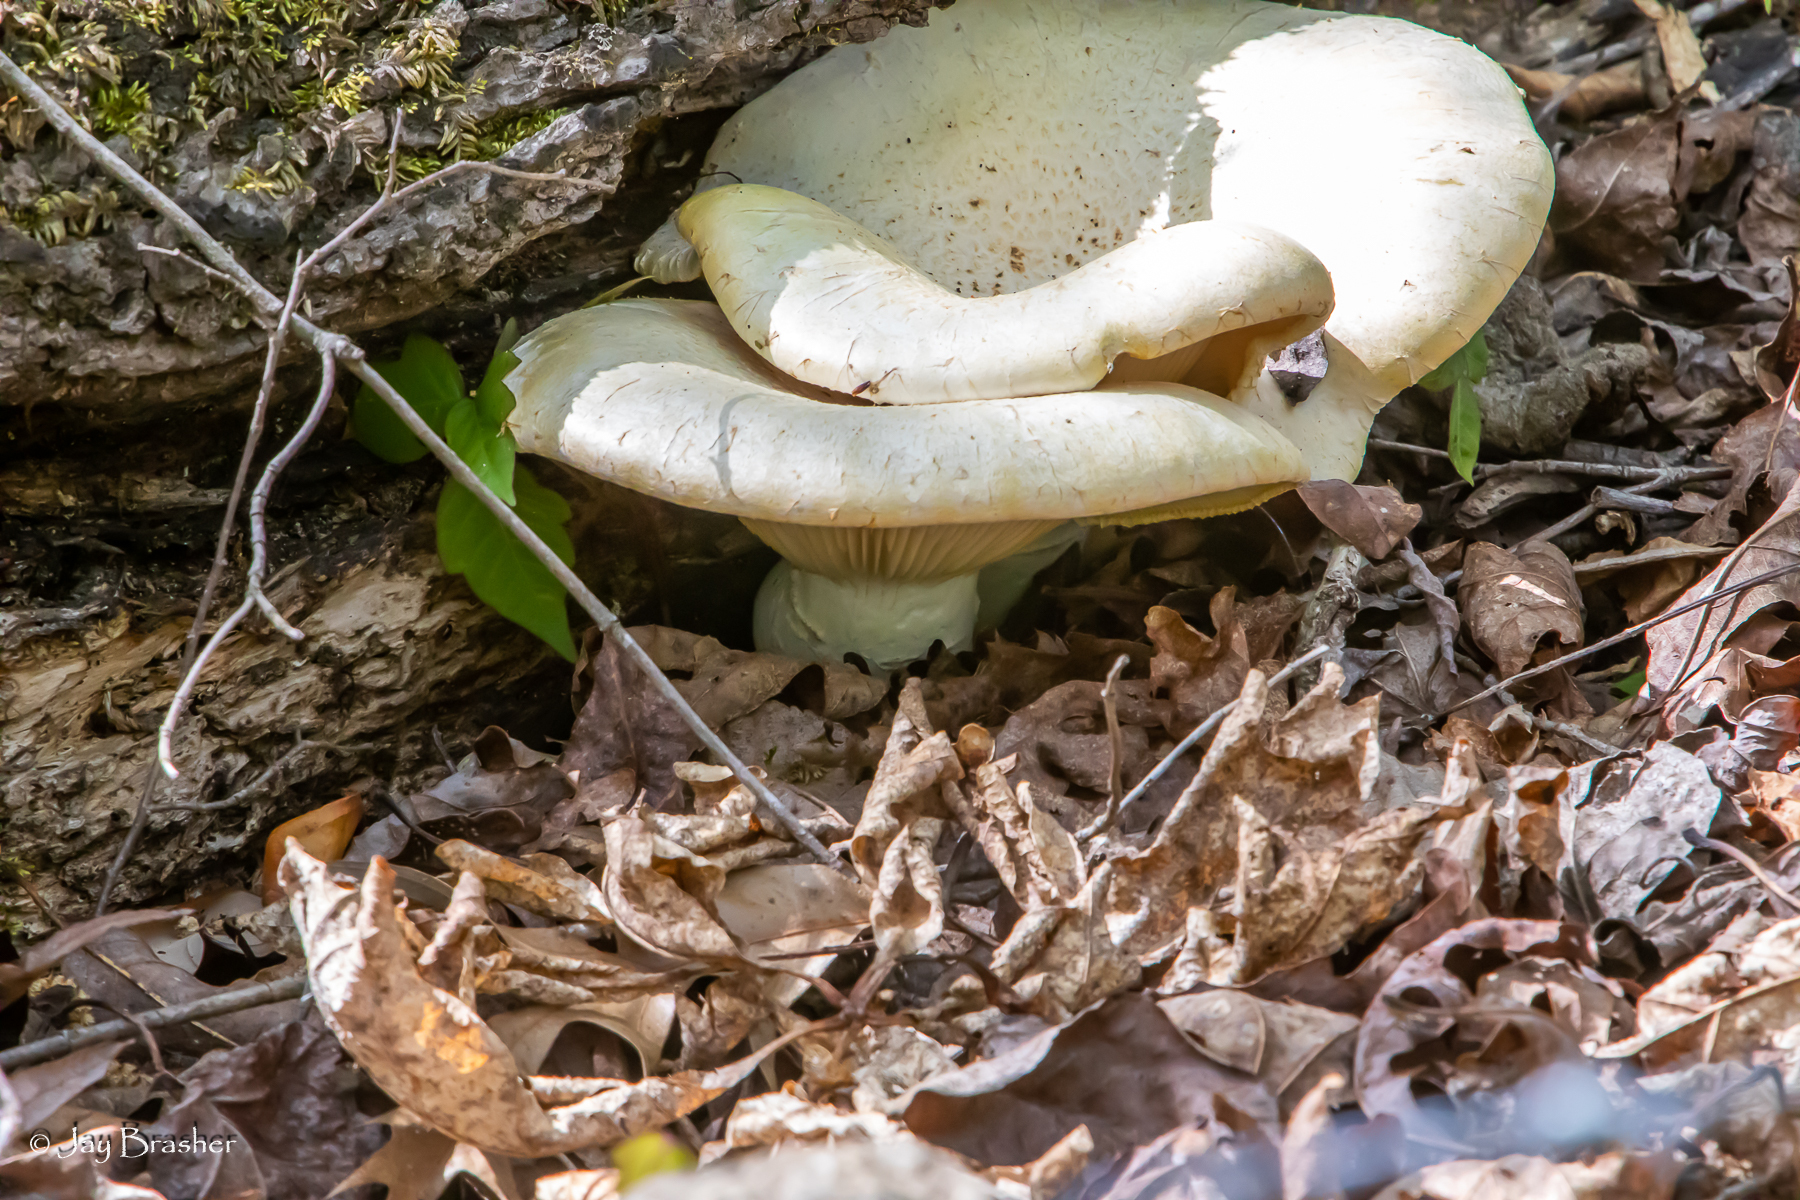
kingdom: Fungi
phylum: Basidiomycota
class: Agaricomycetes
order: Polyporales
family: Polyporaceae
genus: Lentinus
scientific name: Lentinus levis
